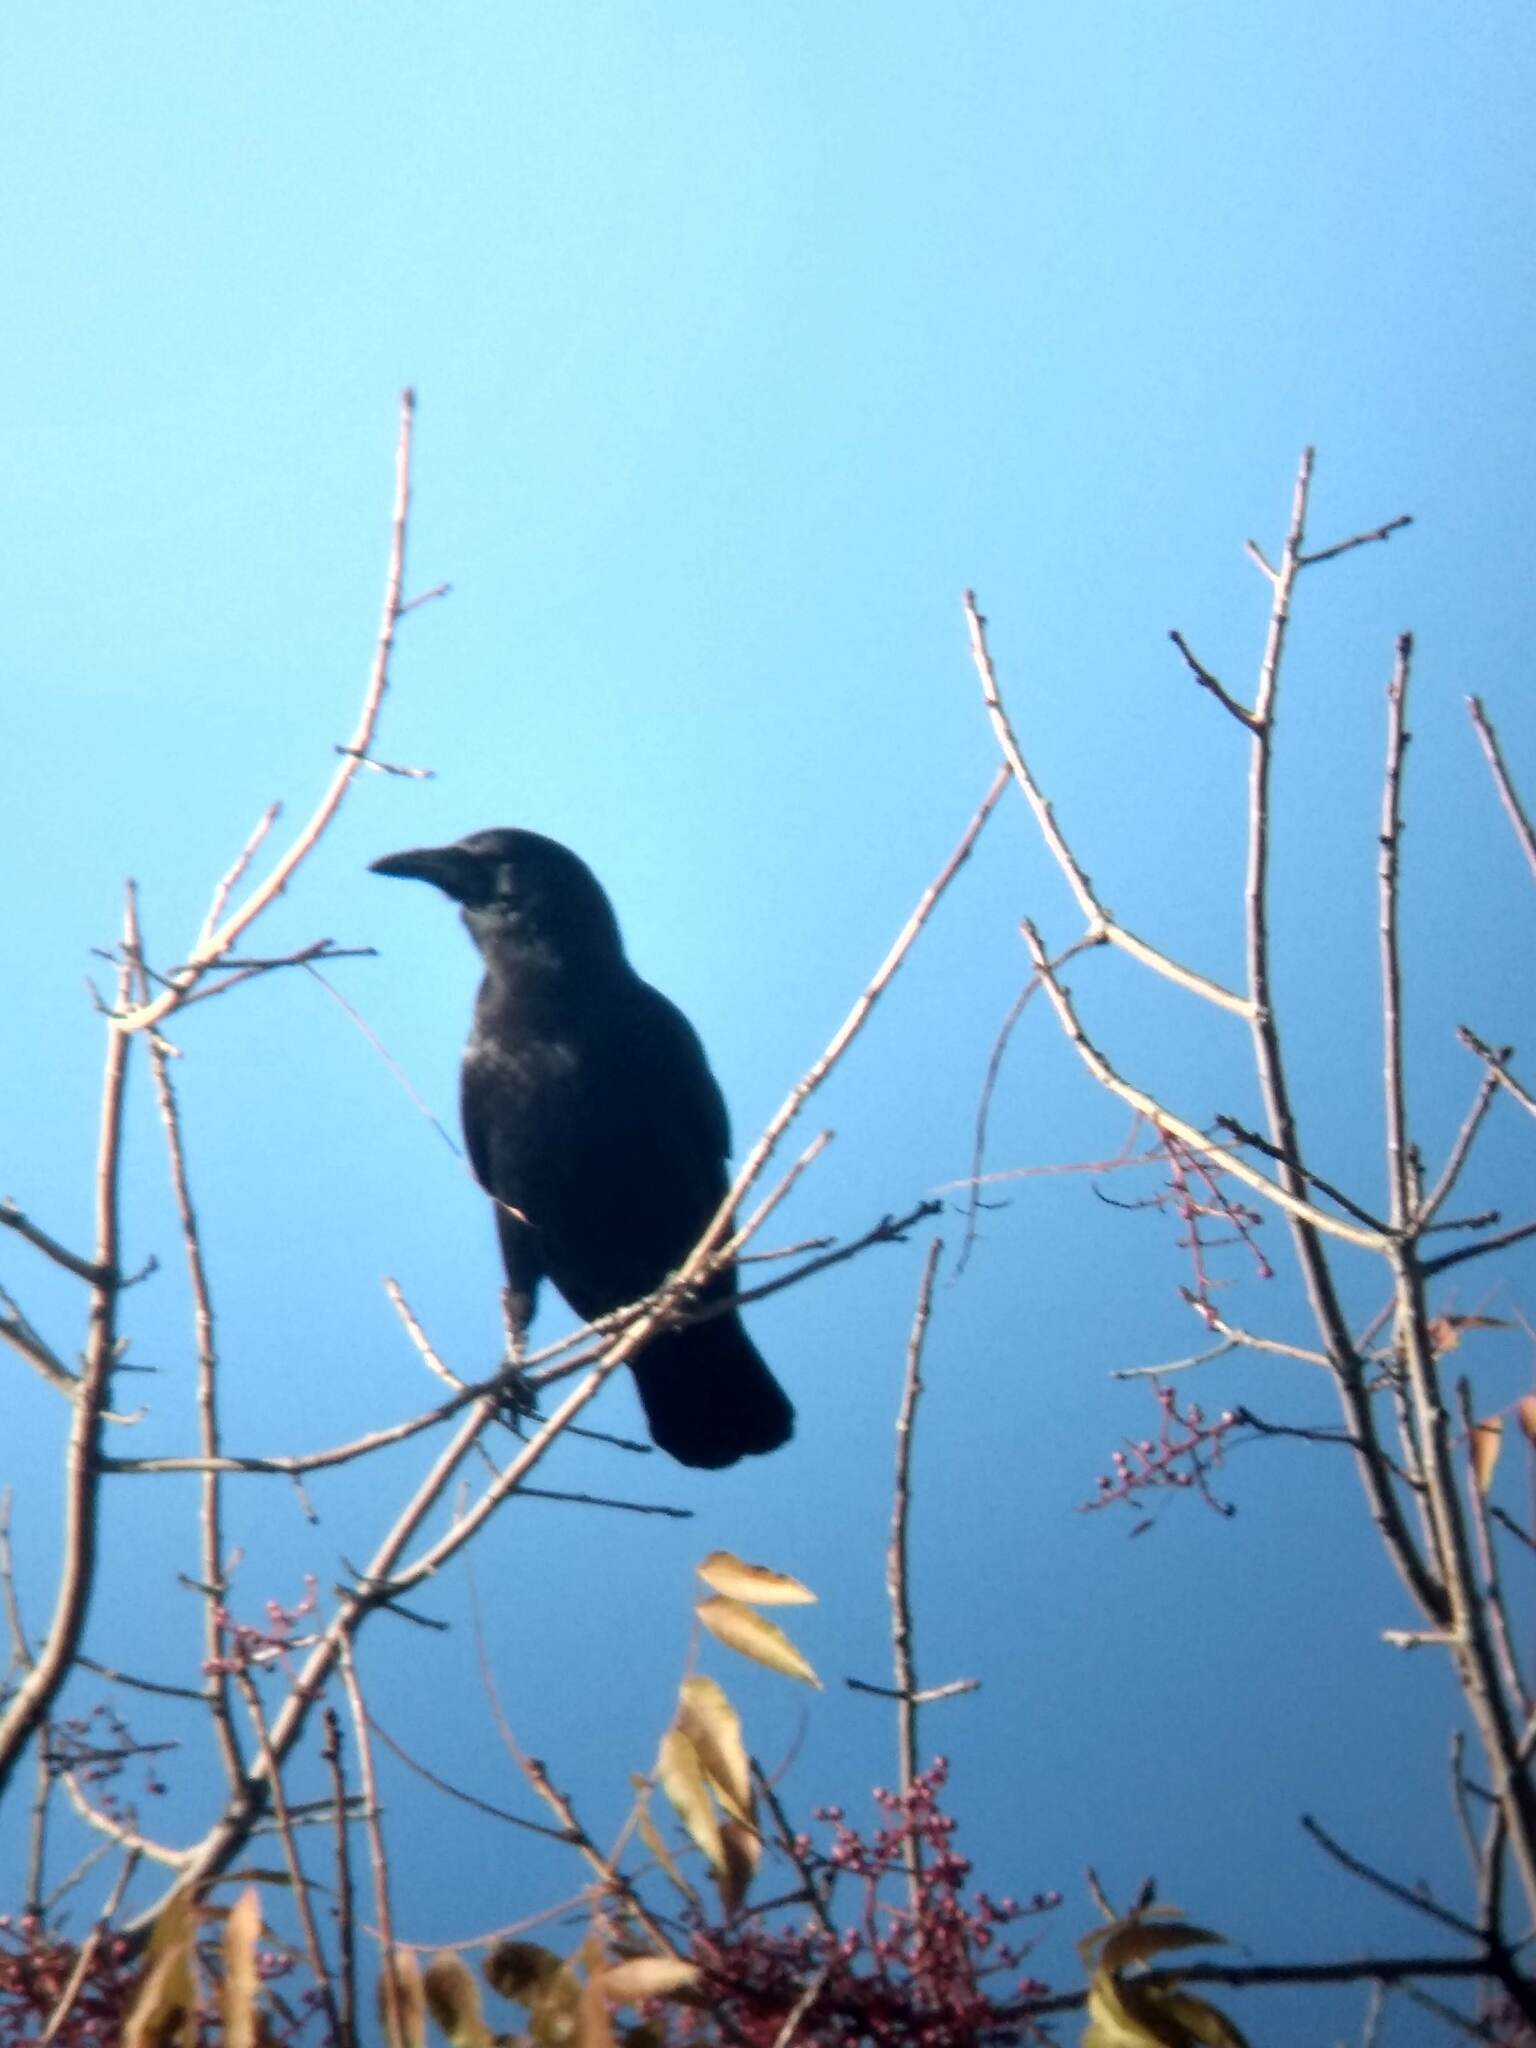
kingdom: Animalia
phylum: Chordata
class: Aves
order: Passeriformes
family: Corvidae
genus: Corvus
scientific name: Corvus brachyrhynchos
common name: American crow
